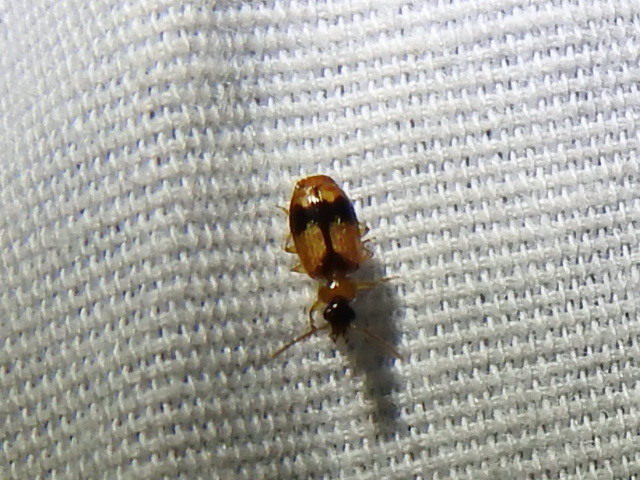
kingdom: Animalia
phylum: Arthropoda
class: Insecta
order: Coleoptera
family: Carabidae
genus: Lebia
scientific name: Lebia esurialis
